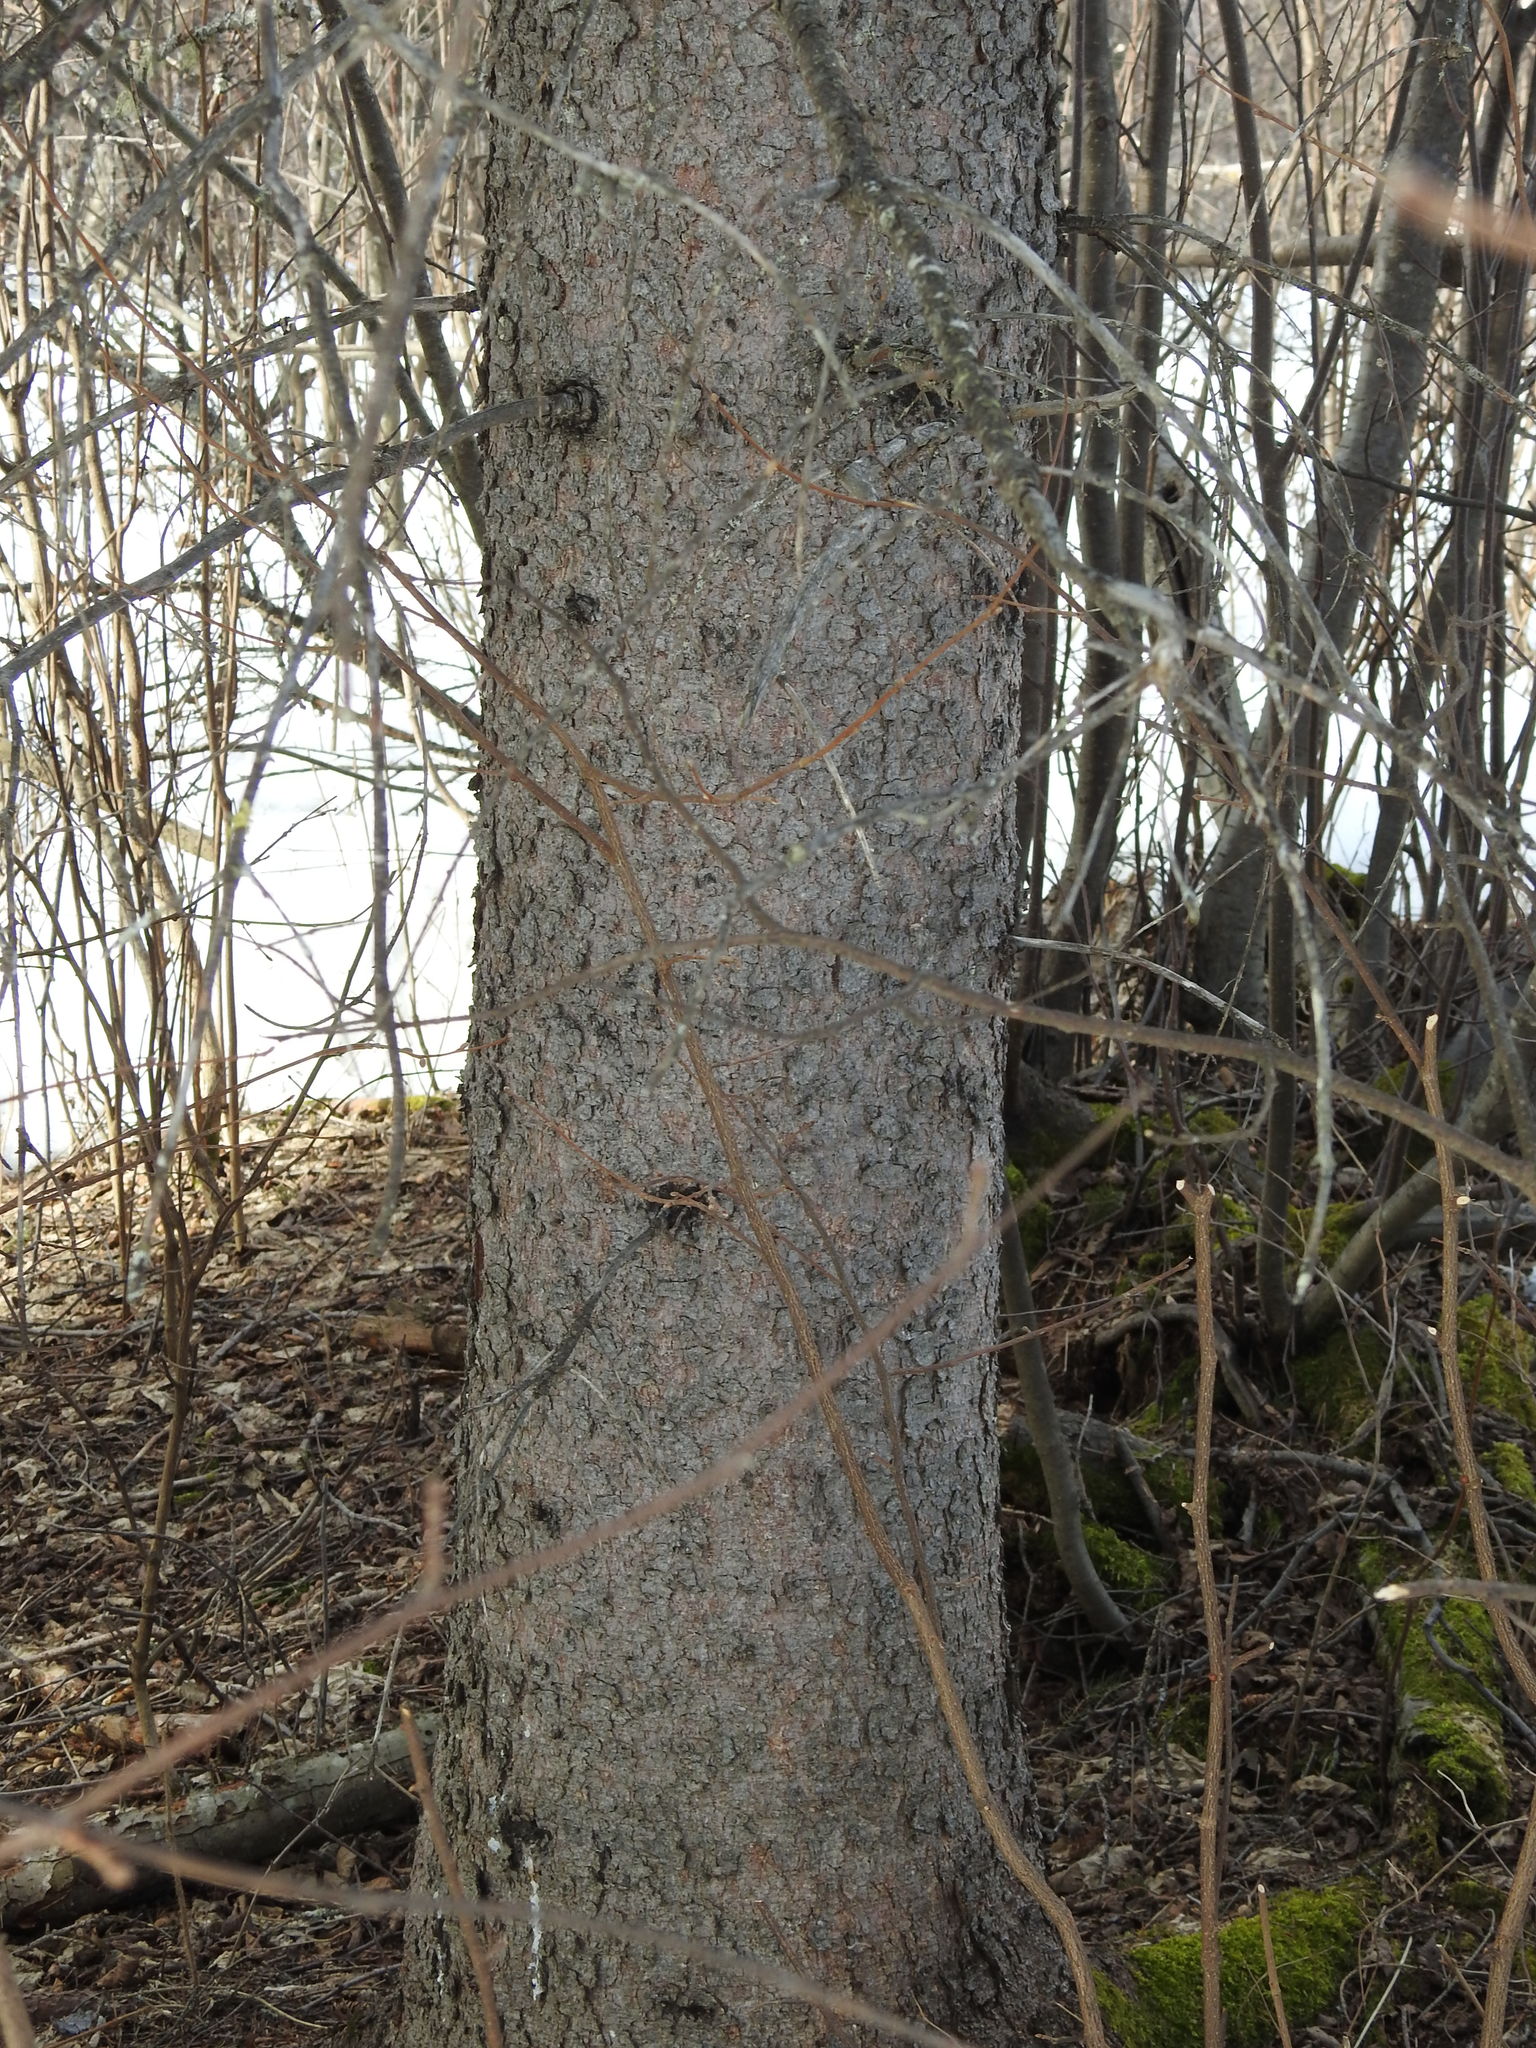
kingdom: Plantae
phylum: Tracheophyta
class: Pinopsida
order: Pinales
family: Pinaceae
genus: Picea
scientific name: Picea glauca
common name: White spruce
